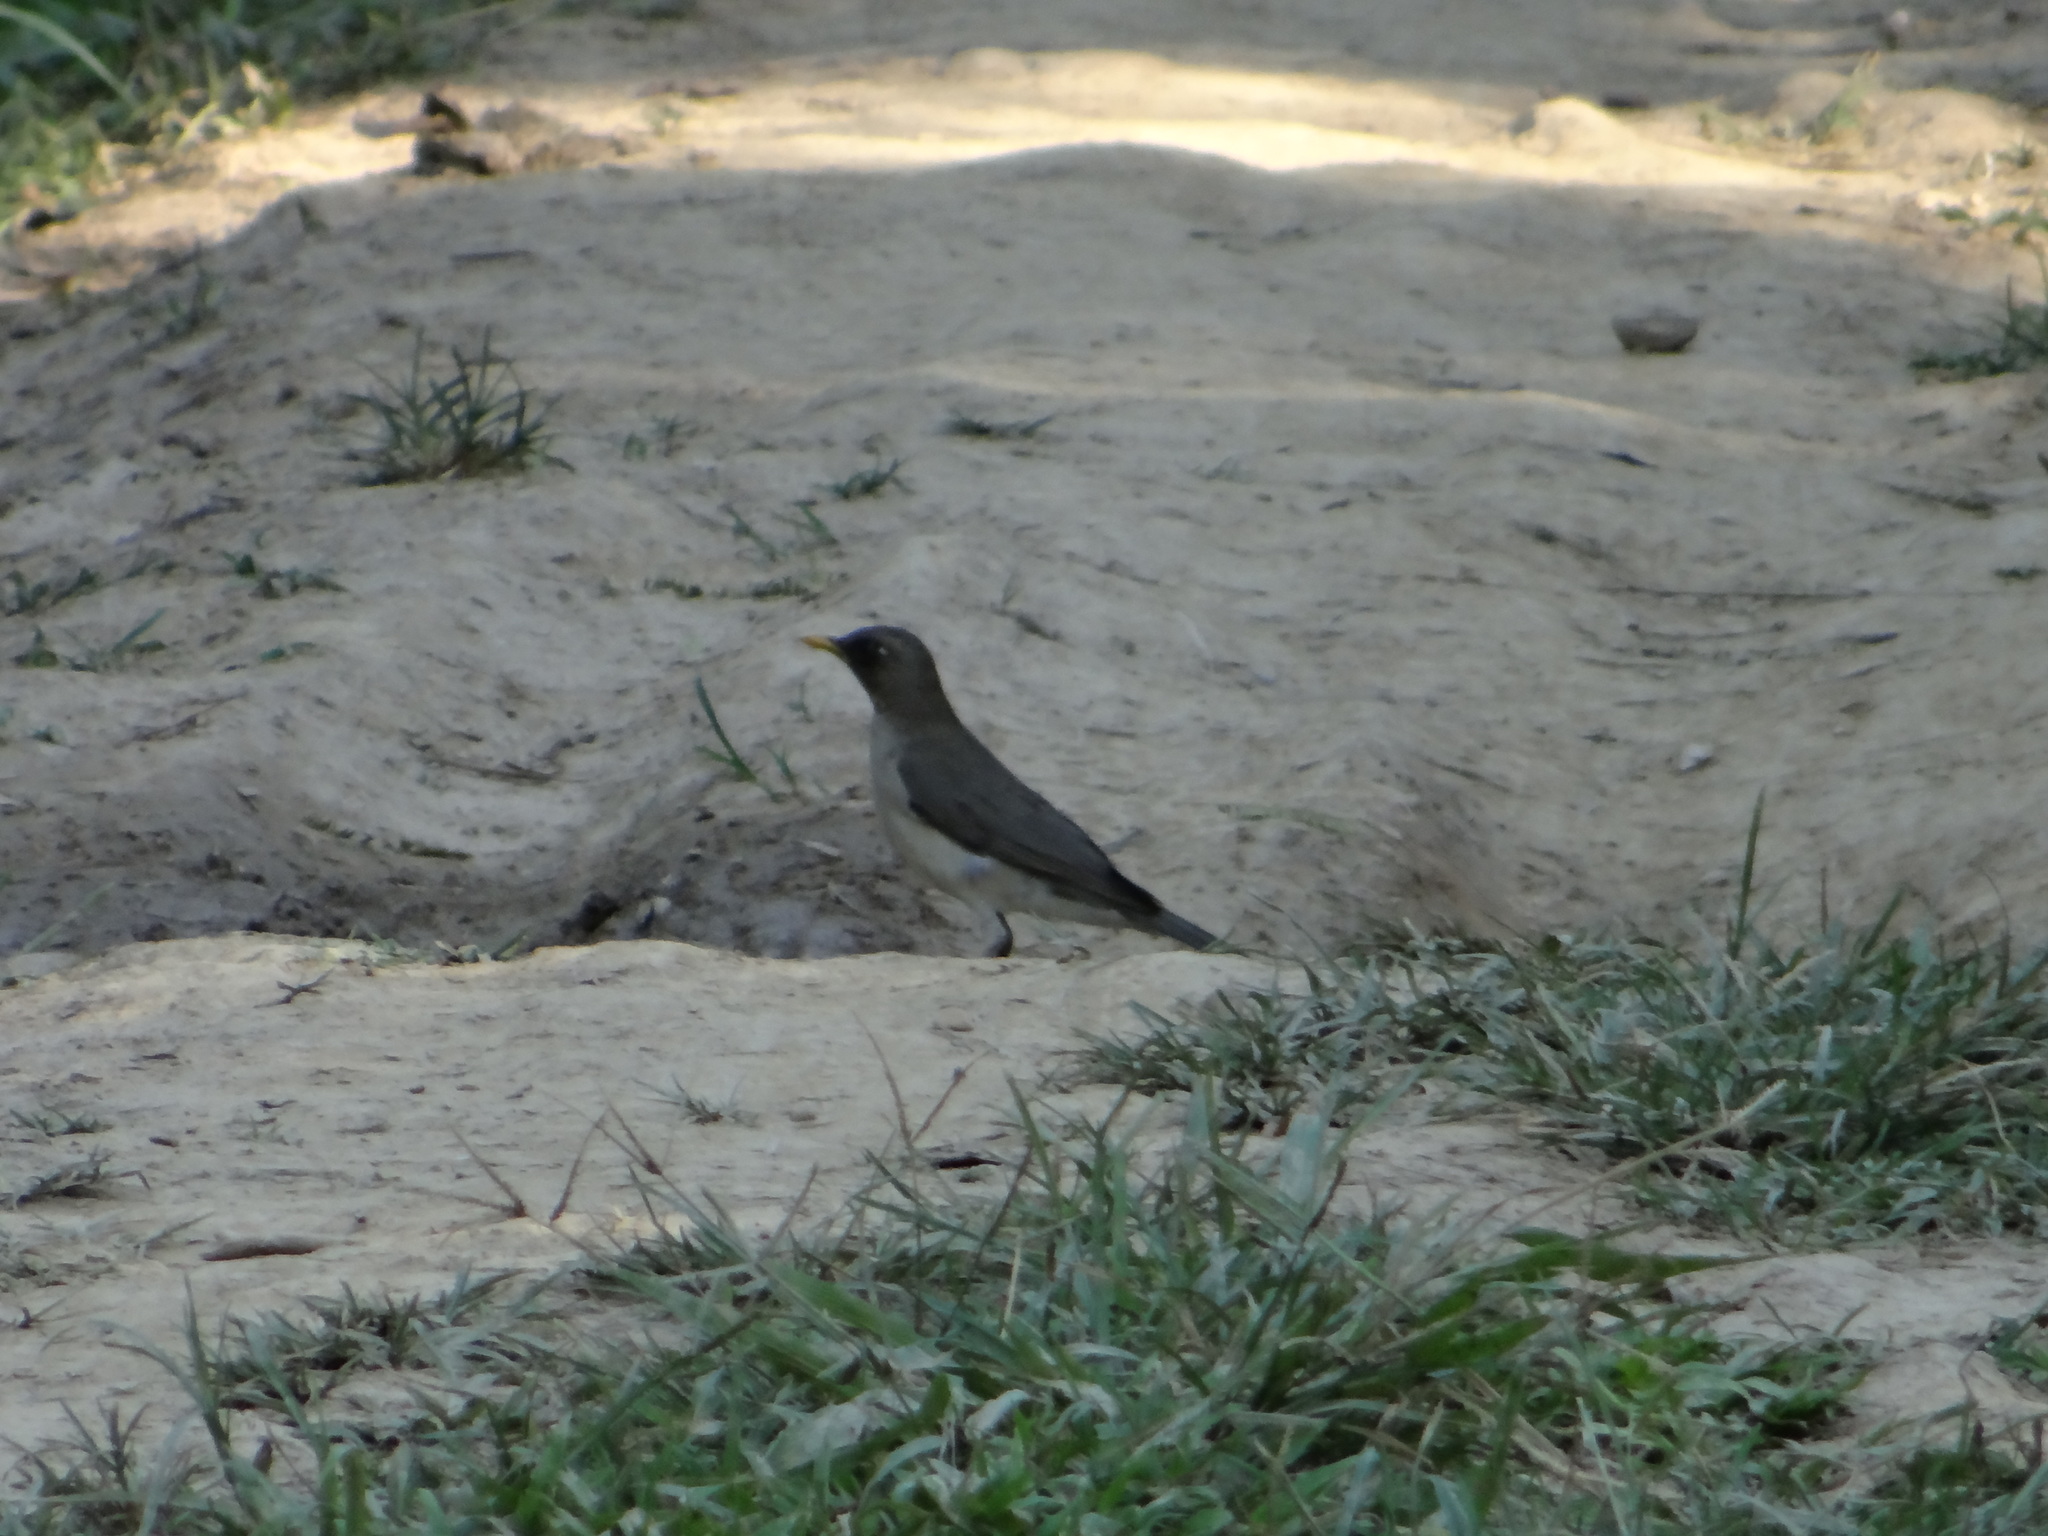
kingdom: Animalia
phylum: Chordata
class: Aves
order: Passeriformes
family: Turdidae
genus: Turdus
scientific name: Turdus amaurochalinus
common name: Creamy-bellied thrush
